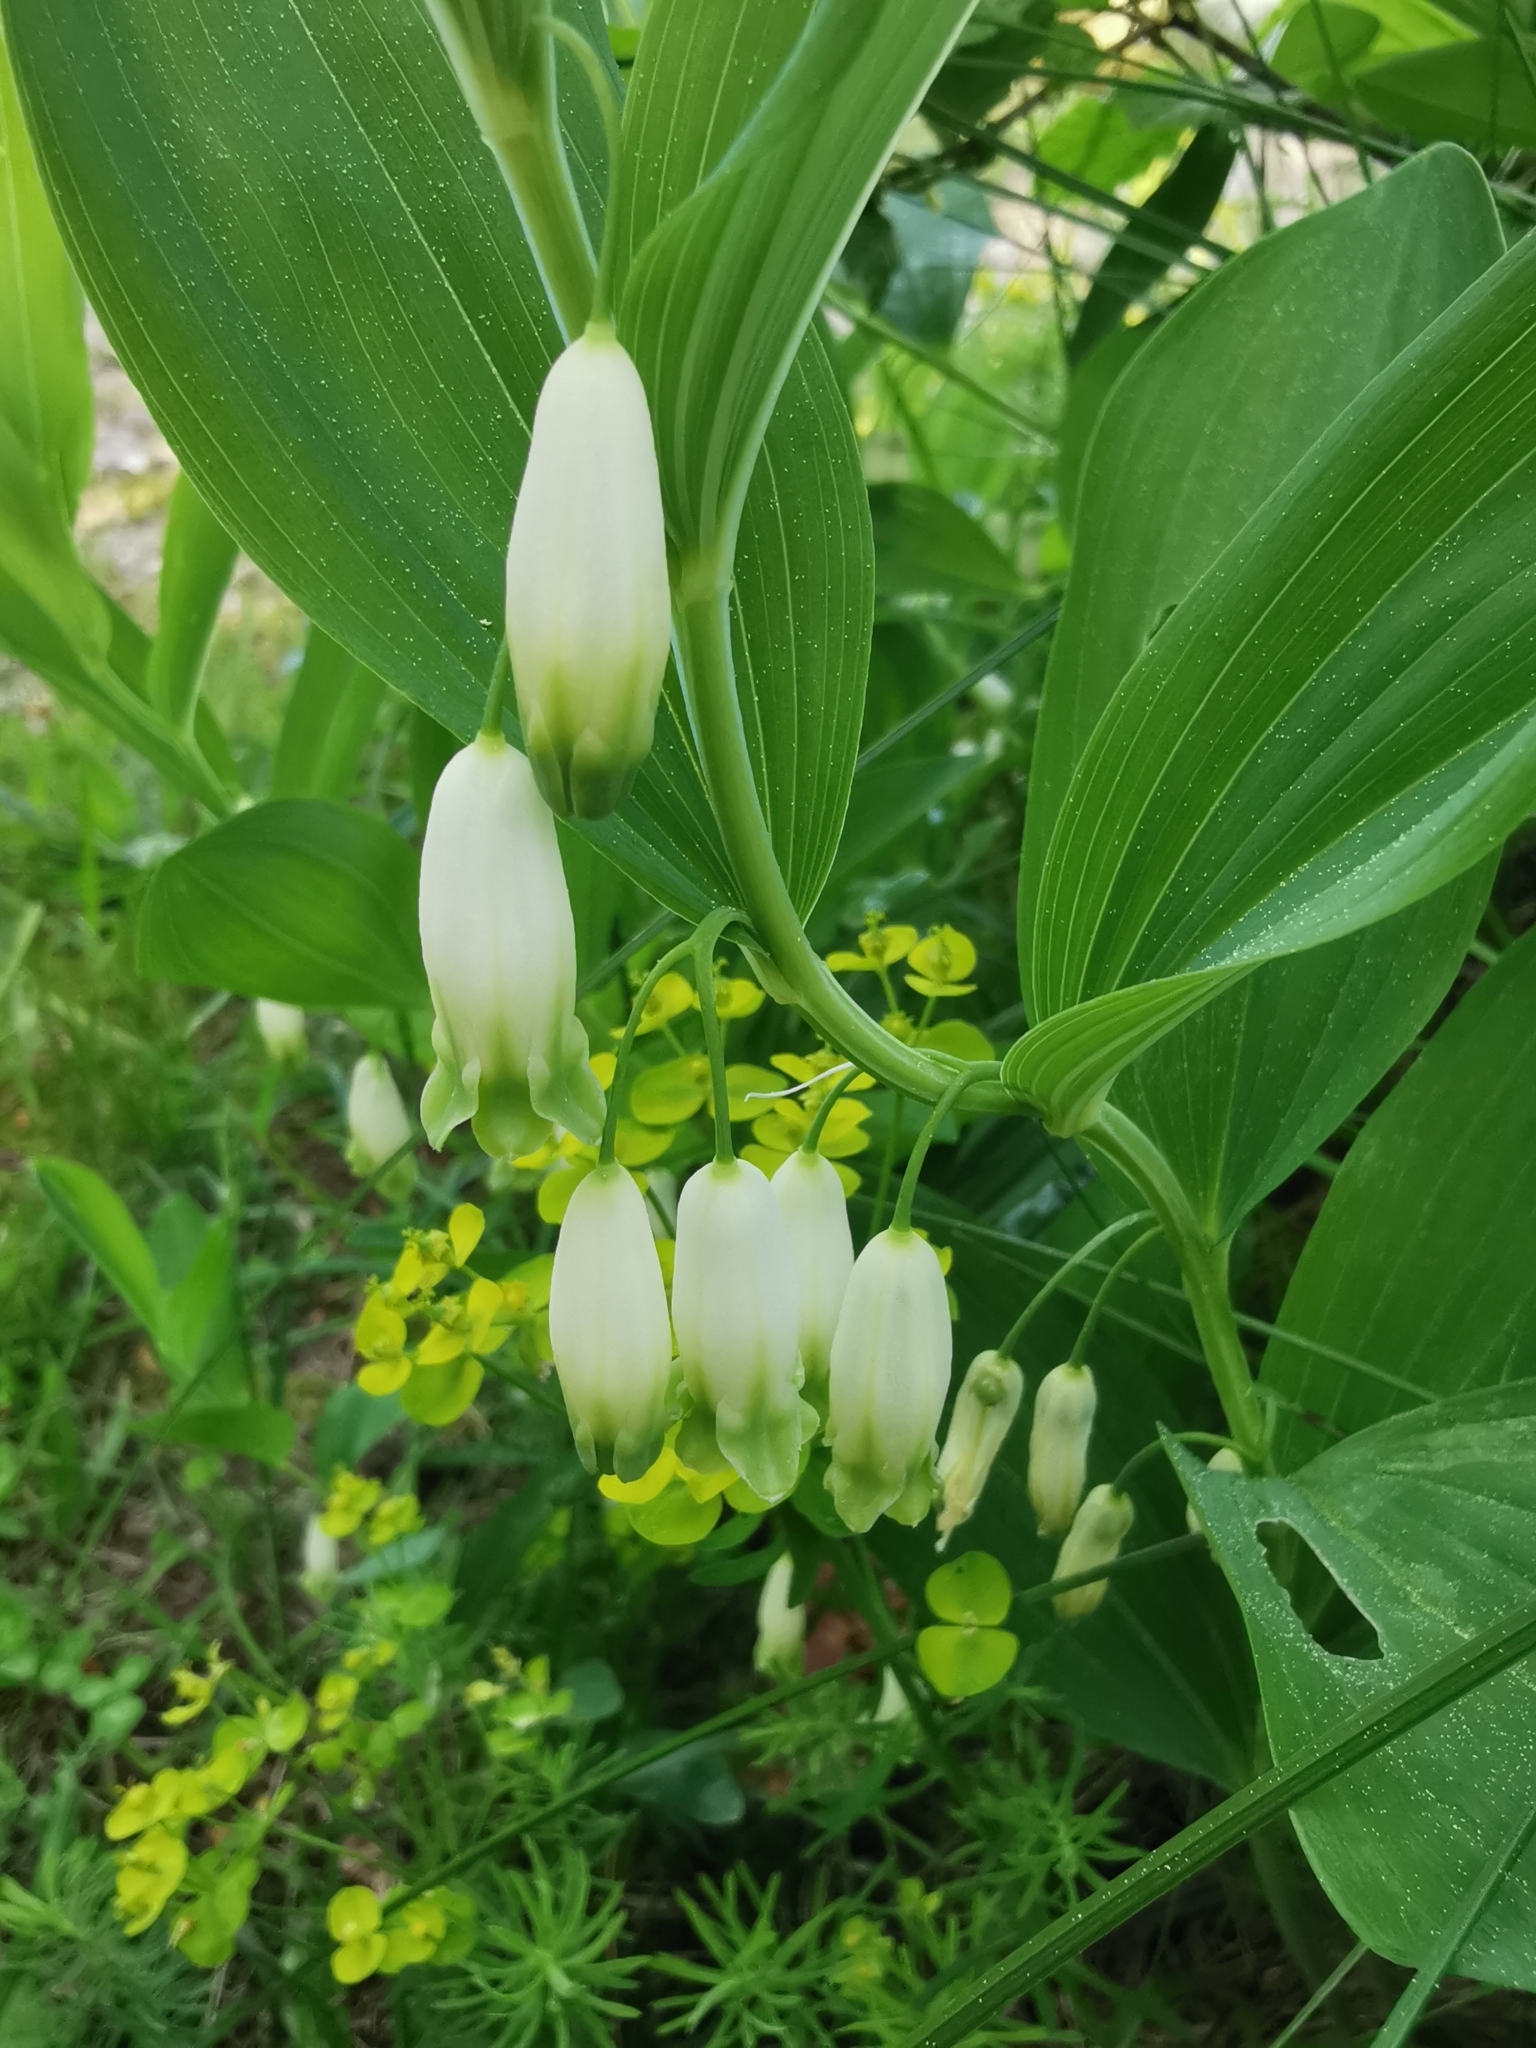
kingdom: Plantae
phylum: Tracheophyta
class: Liliopsida
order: Asparagales
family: Asparagaceae
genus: Polygonatum
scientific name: Polygonatum odoratum
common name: Angular solomon's-seal
